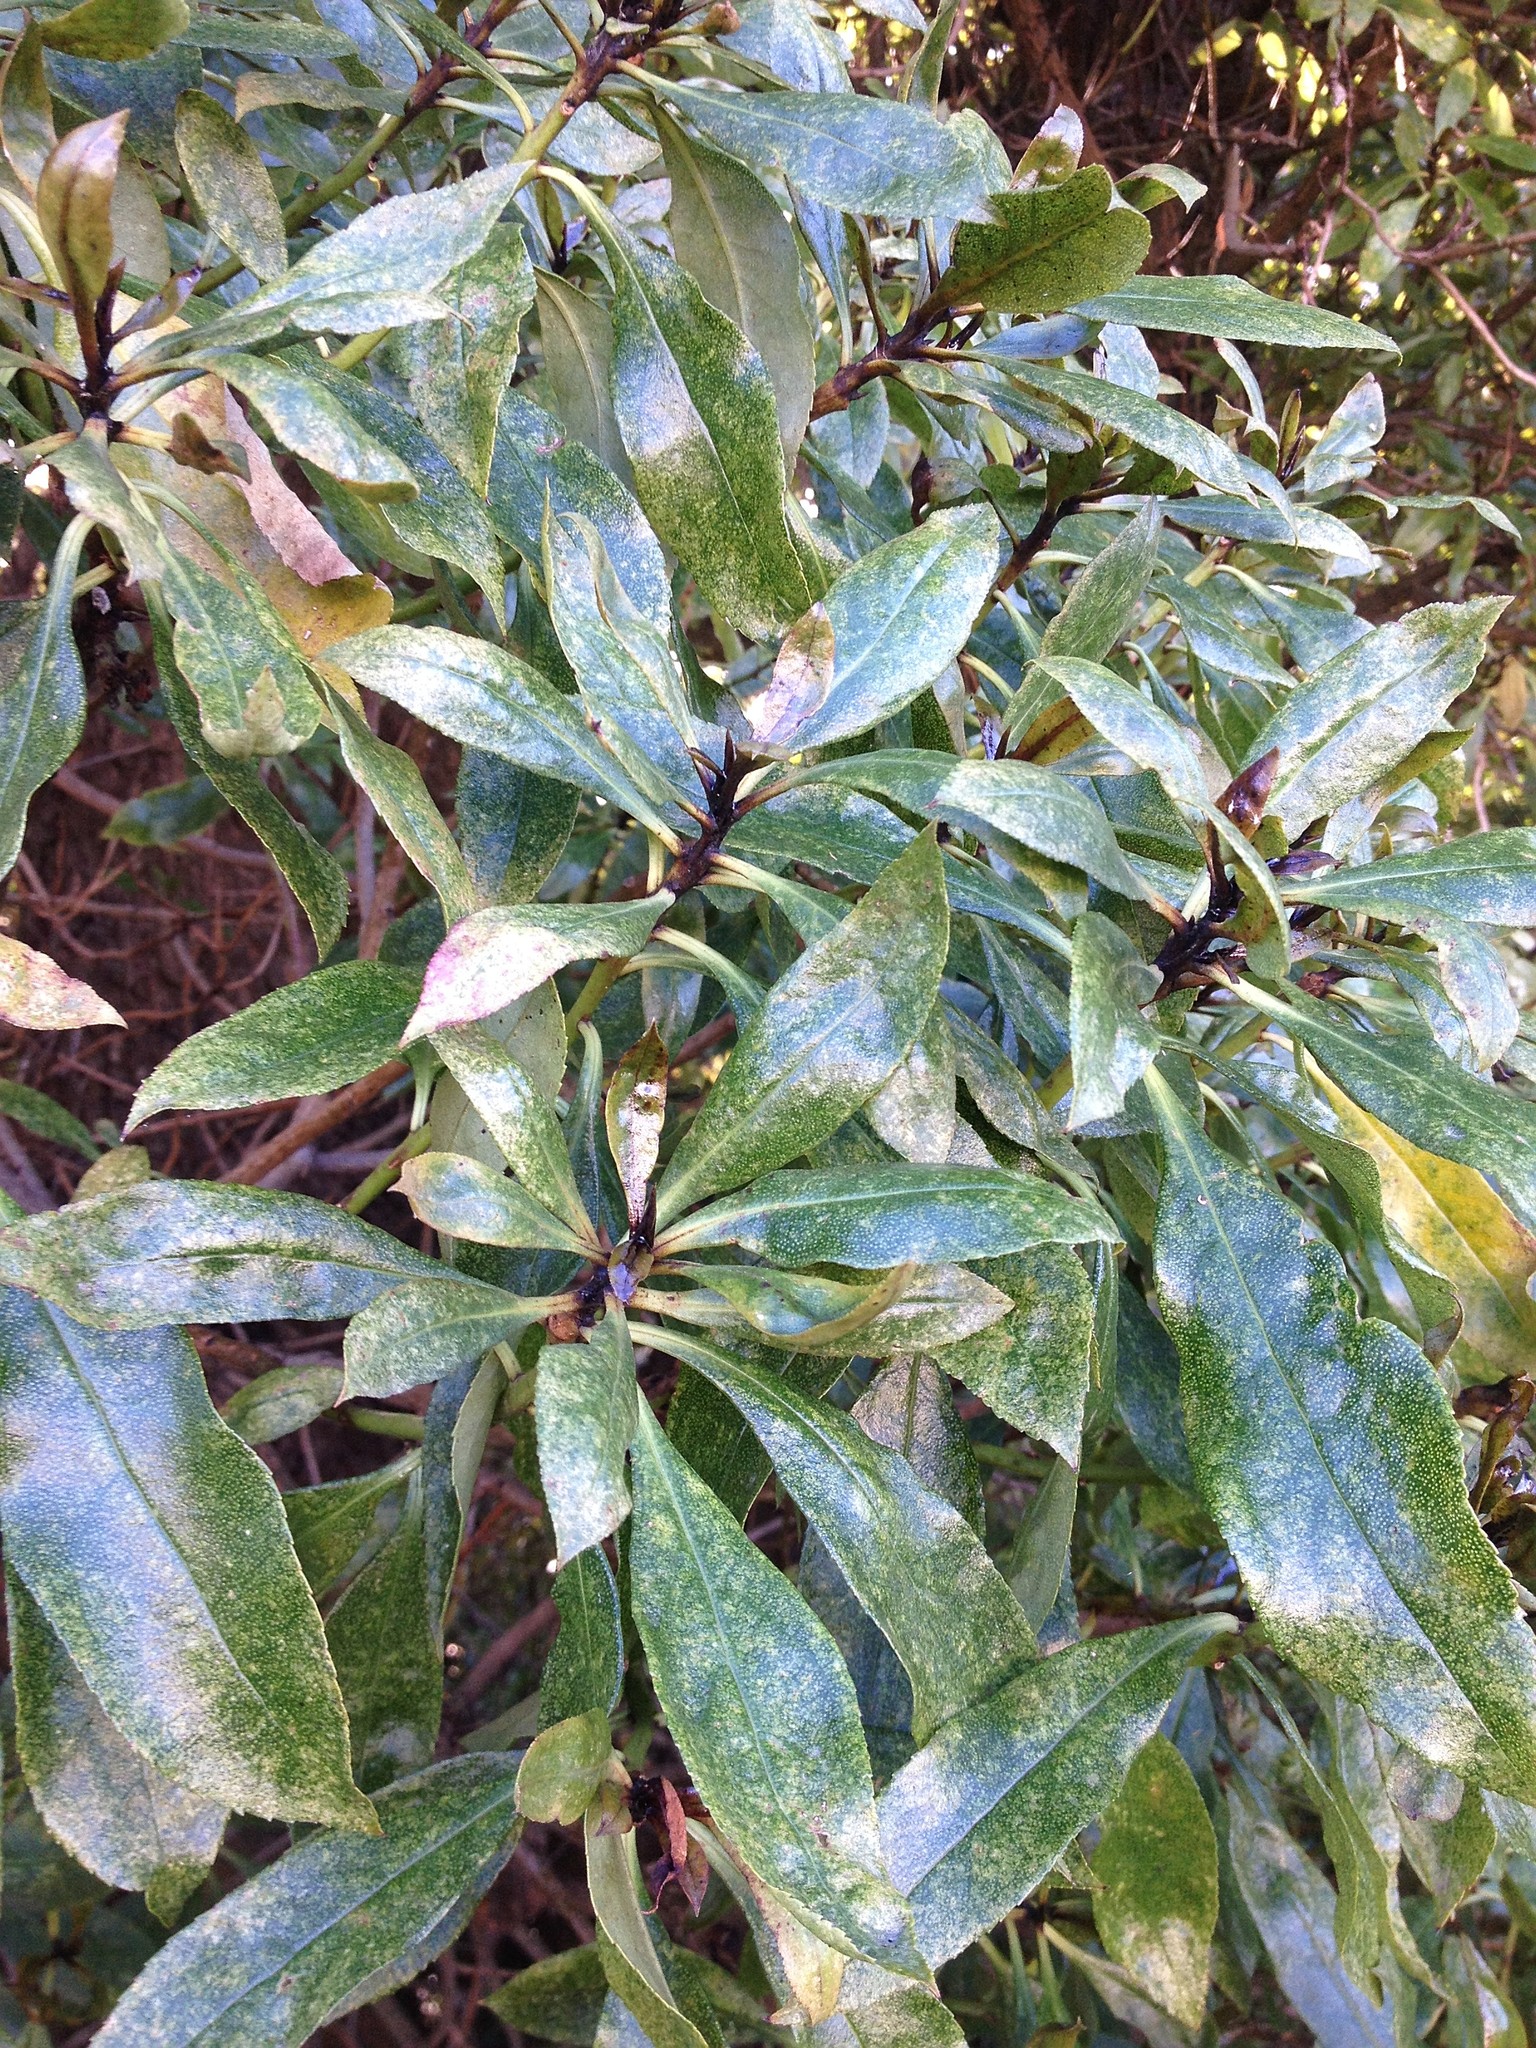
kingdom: Plantae
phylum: Tracheophyta
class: Magnoliopsida
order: Lamiales
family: Scrophulariaceae
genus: Myoporum
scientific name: Myoporum laetum
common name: Ngaio tree
